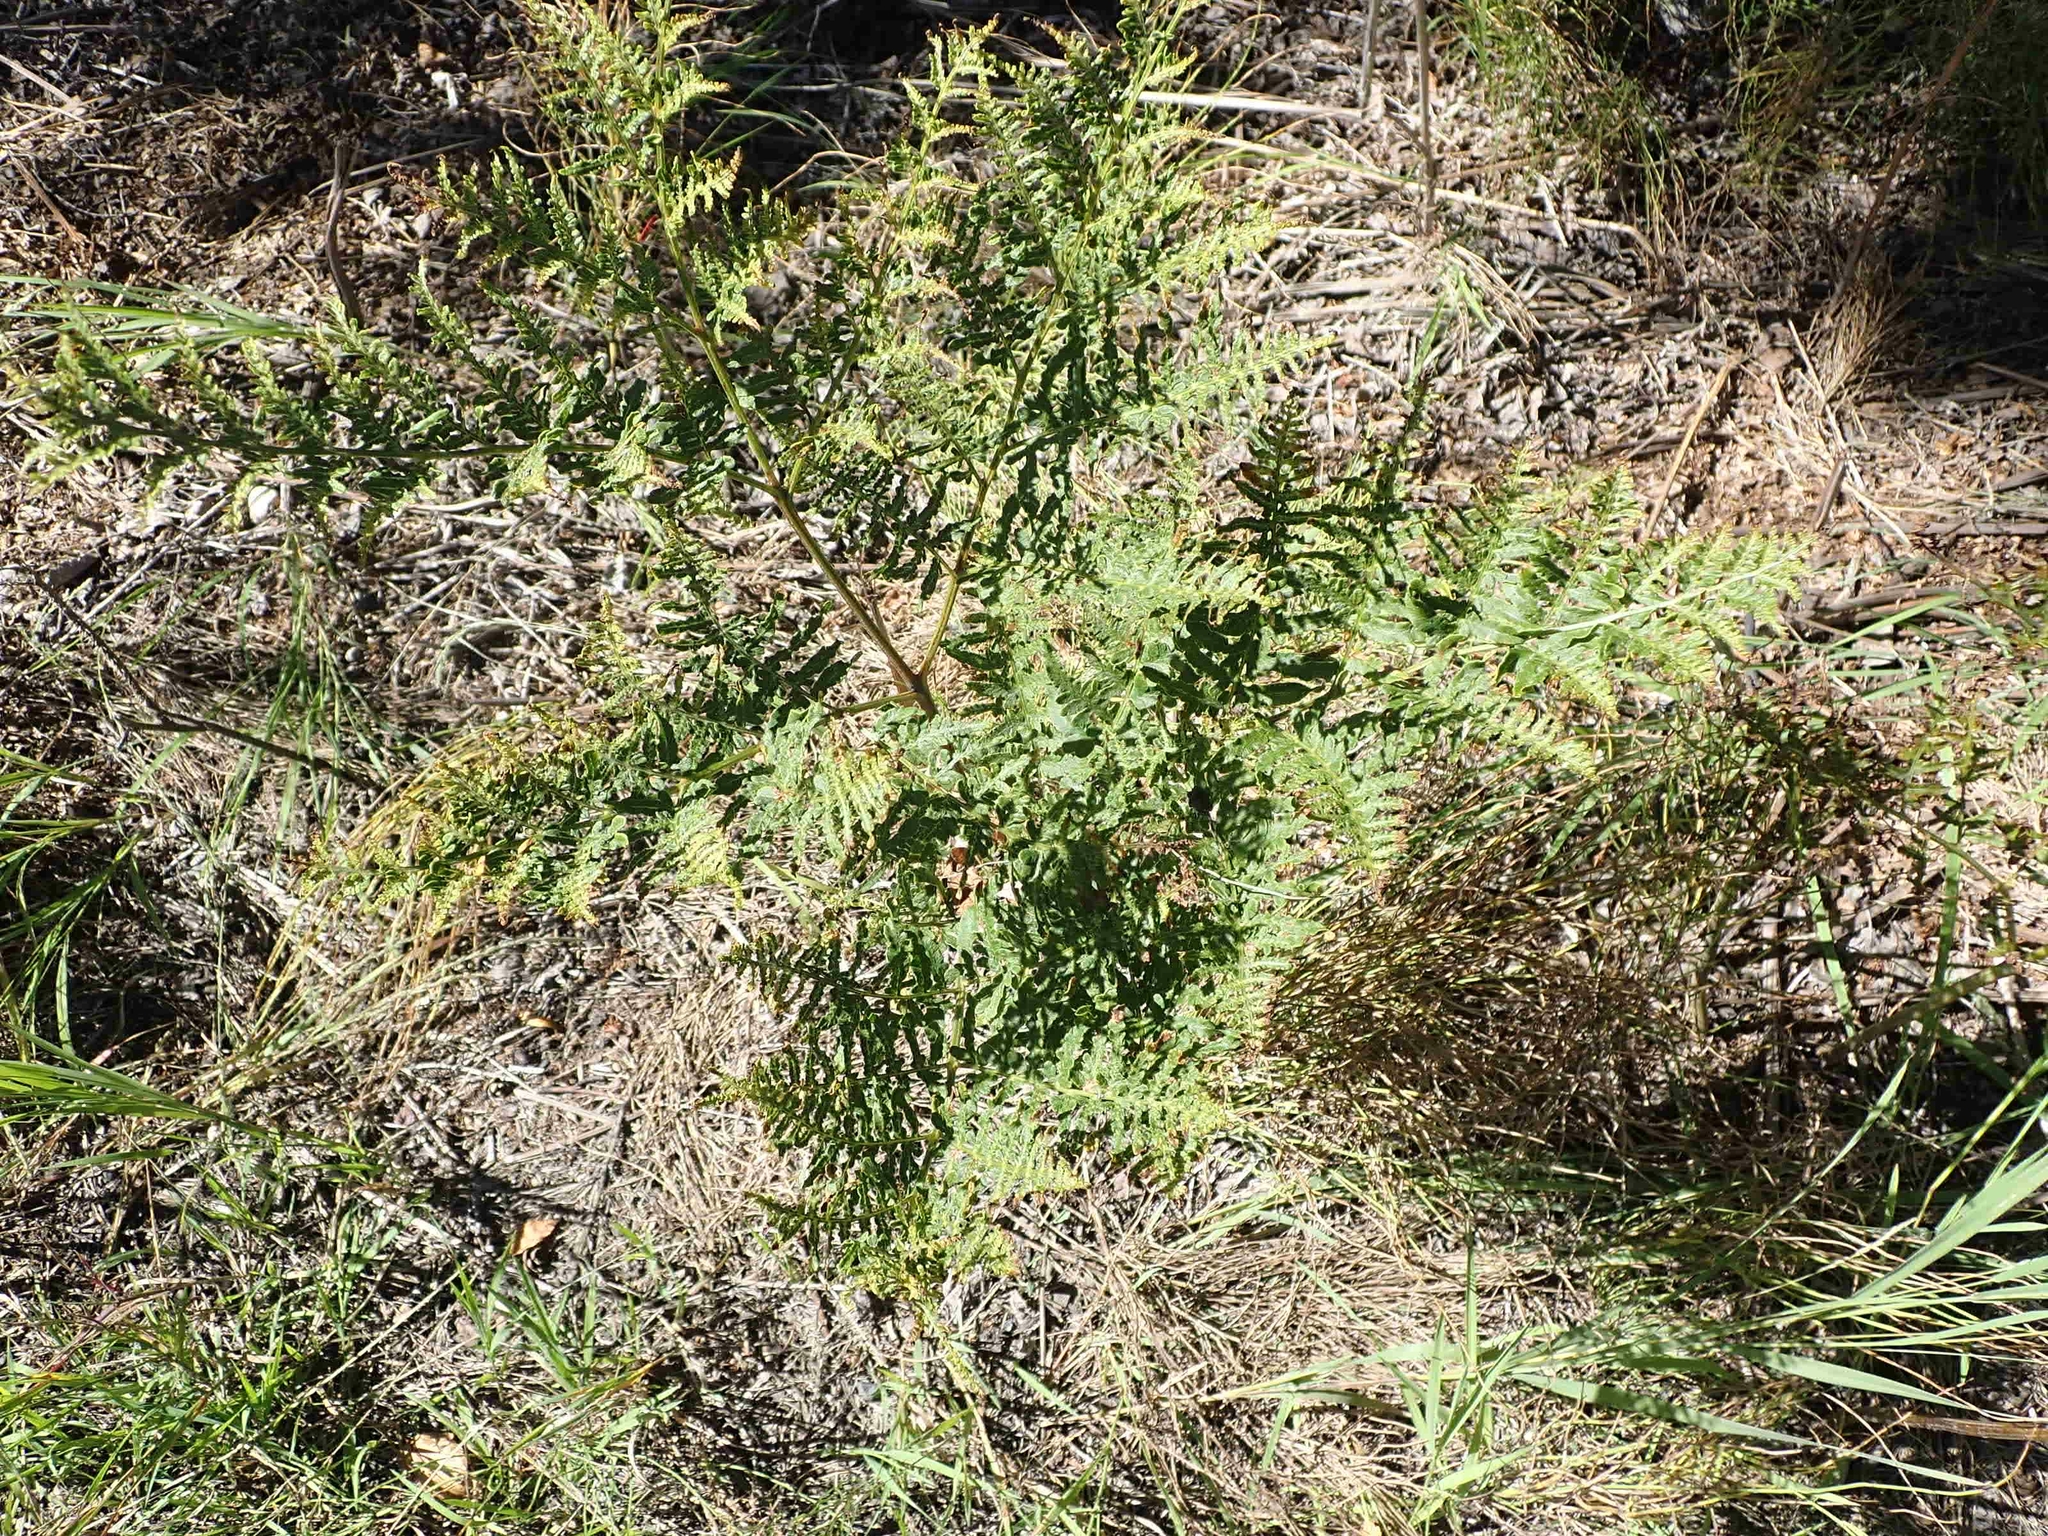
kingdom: Plantae
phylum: Tracheophyta
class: Polypodiopsida
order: Polypodiales
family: Dennstaedtiaceae
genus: Pteridium
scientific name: Pteridium aquilinum
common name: Bracken
